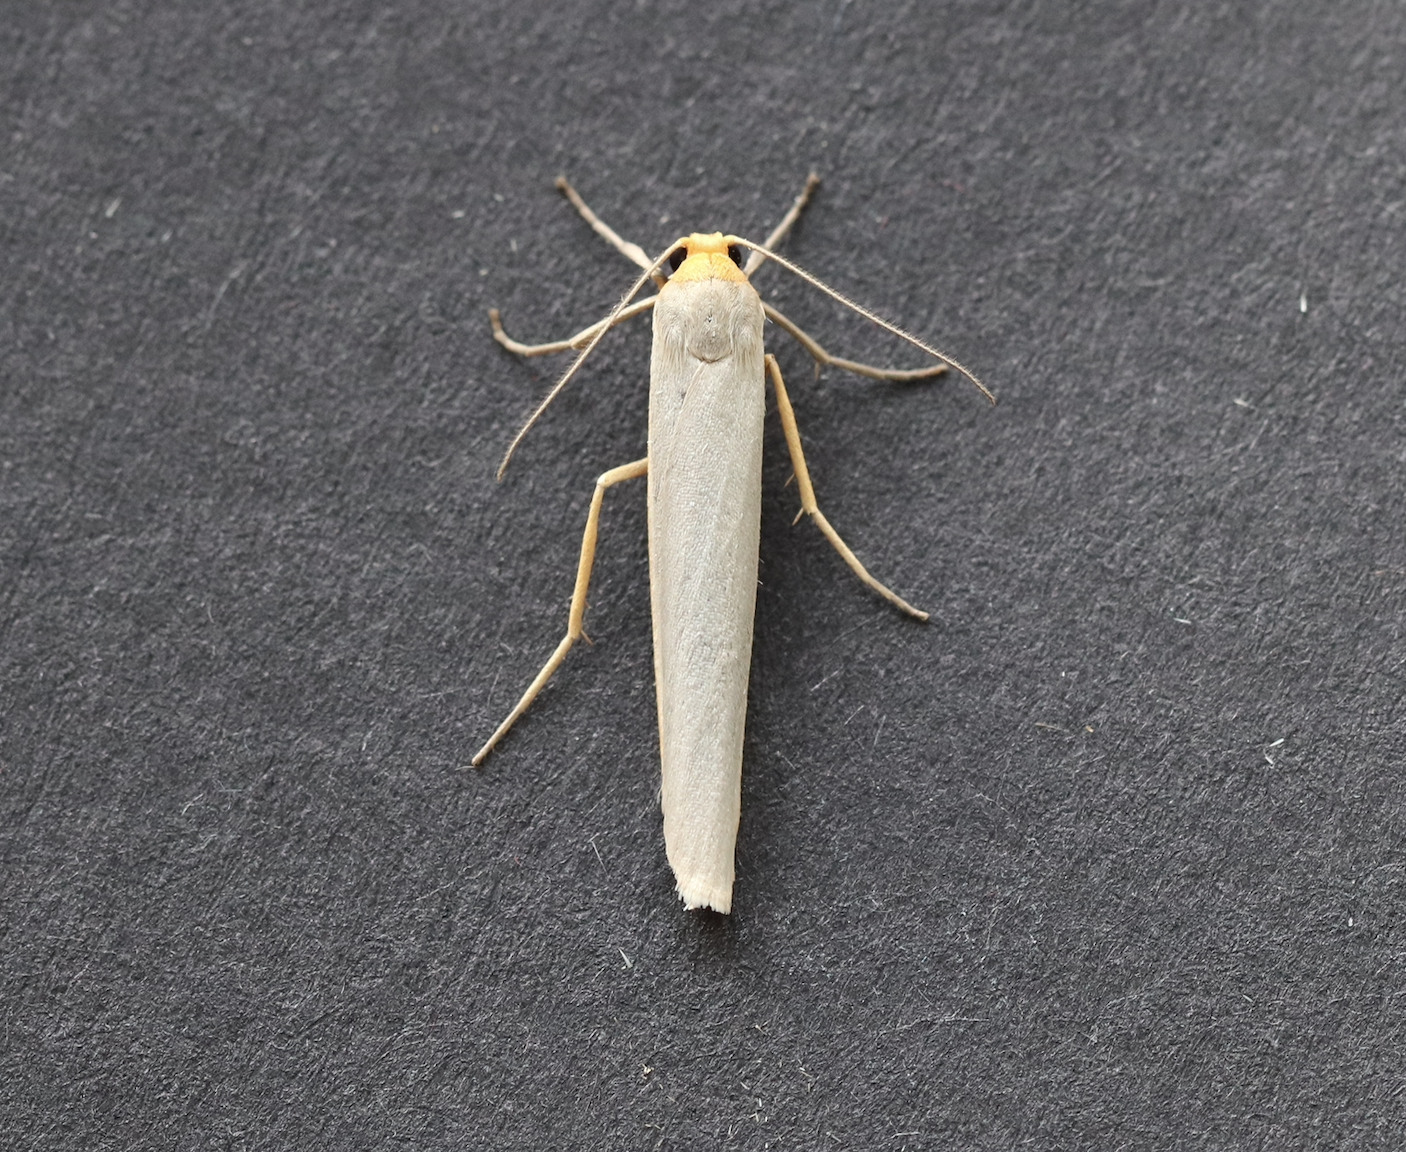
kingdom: Animalia
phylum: Arthropoda
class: Insecta
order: Lepidoptera
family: Erebidae
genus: Eilema
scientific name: Eilema caniola
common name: Hoary footman
